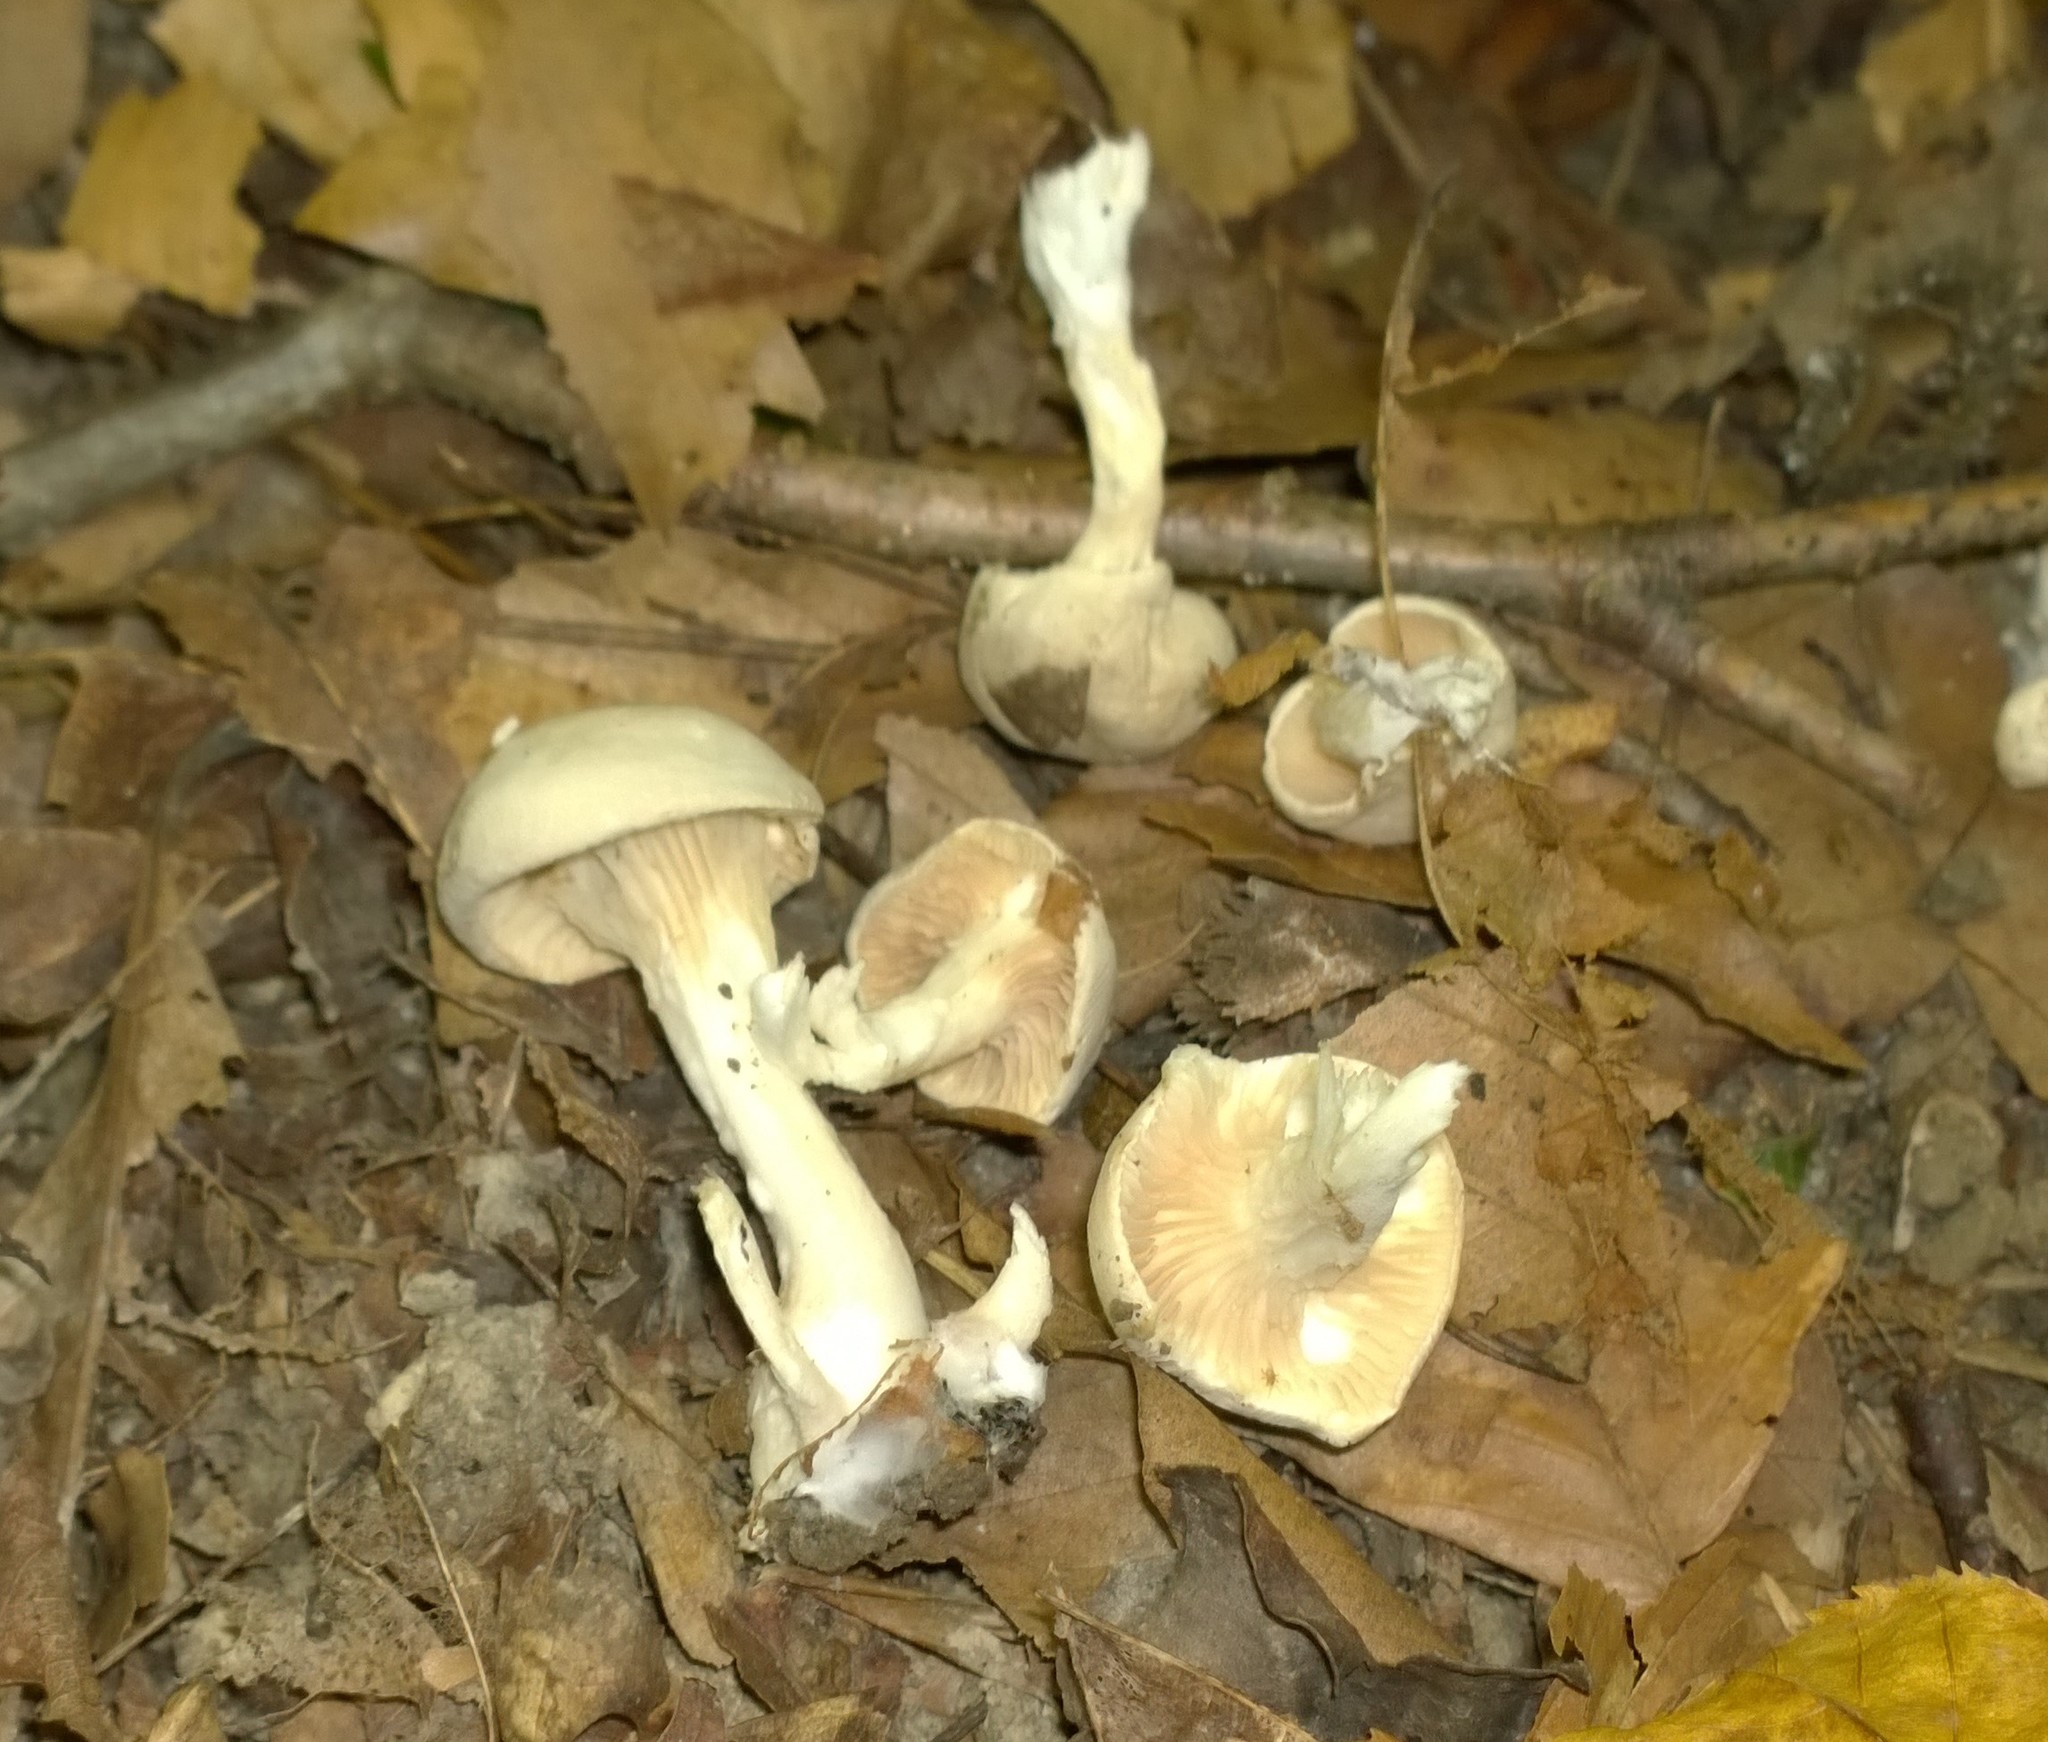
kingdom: Fungi
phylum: Basidiomycota
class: Agaricomycetes
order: Agaricales
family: Entolomataceae
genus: Clitopilus
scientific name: Clitopilus prunulus
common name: The miller
